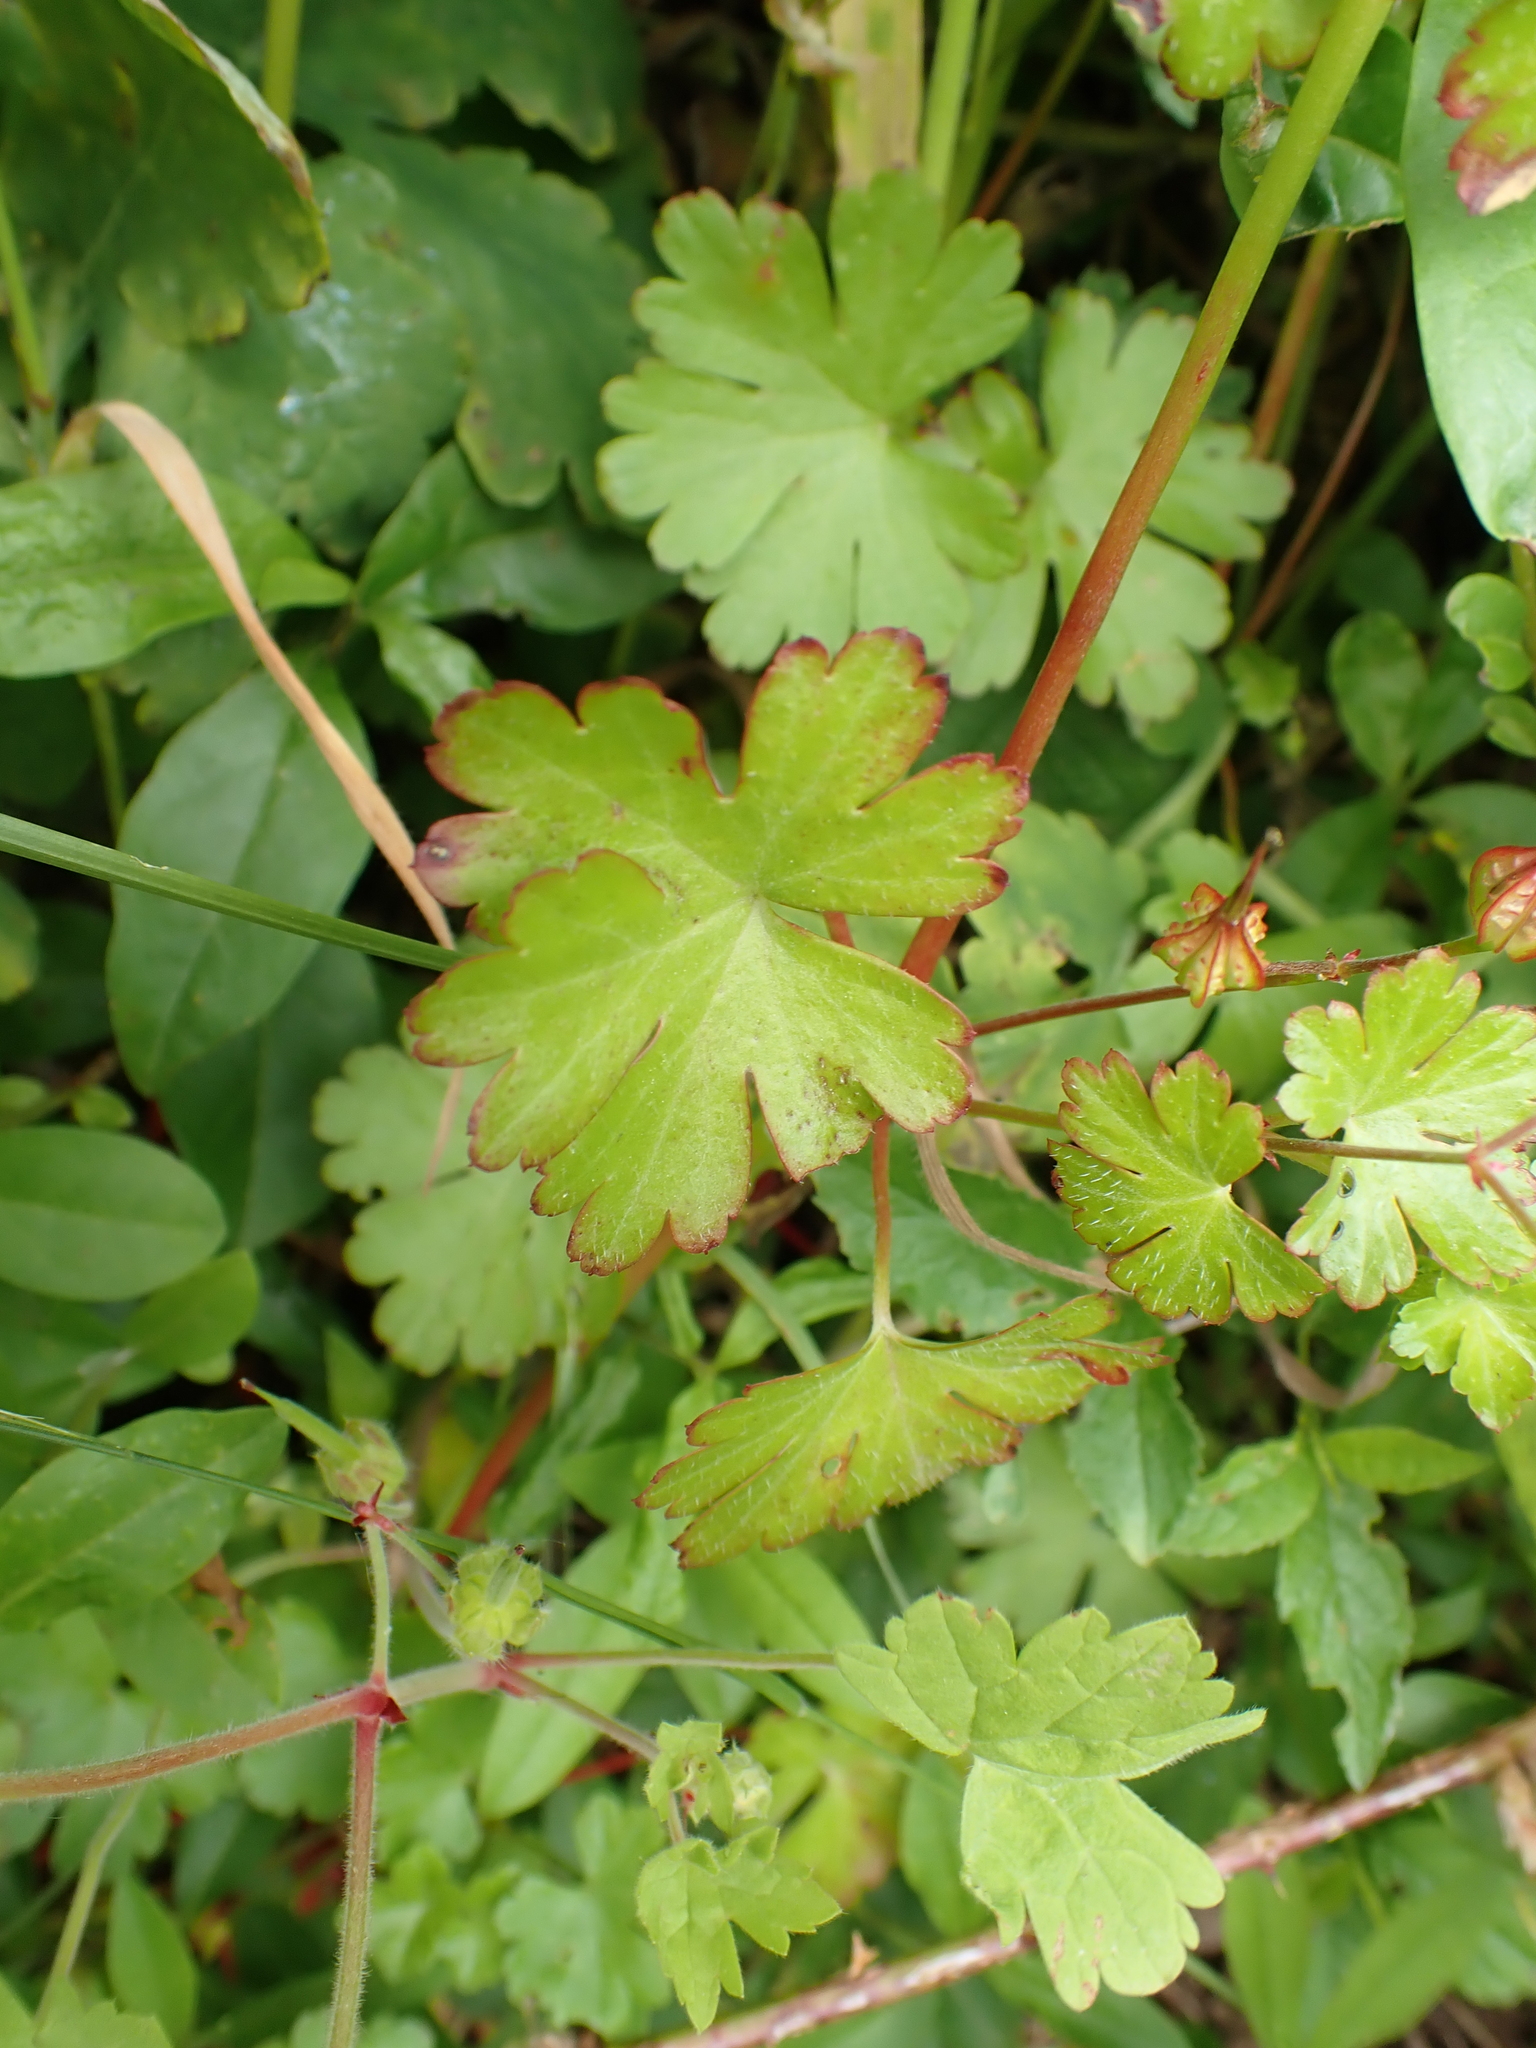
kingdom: Plantae
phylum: Tracheophyta
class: Magnoliopsida
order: Geraniales
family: Geraniaceae
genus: Geranium
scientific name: Geranium lucidum
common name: Shining crane's-bill
